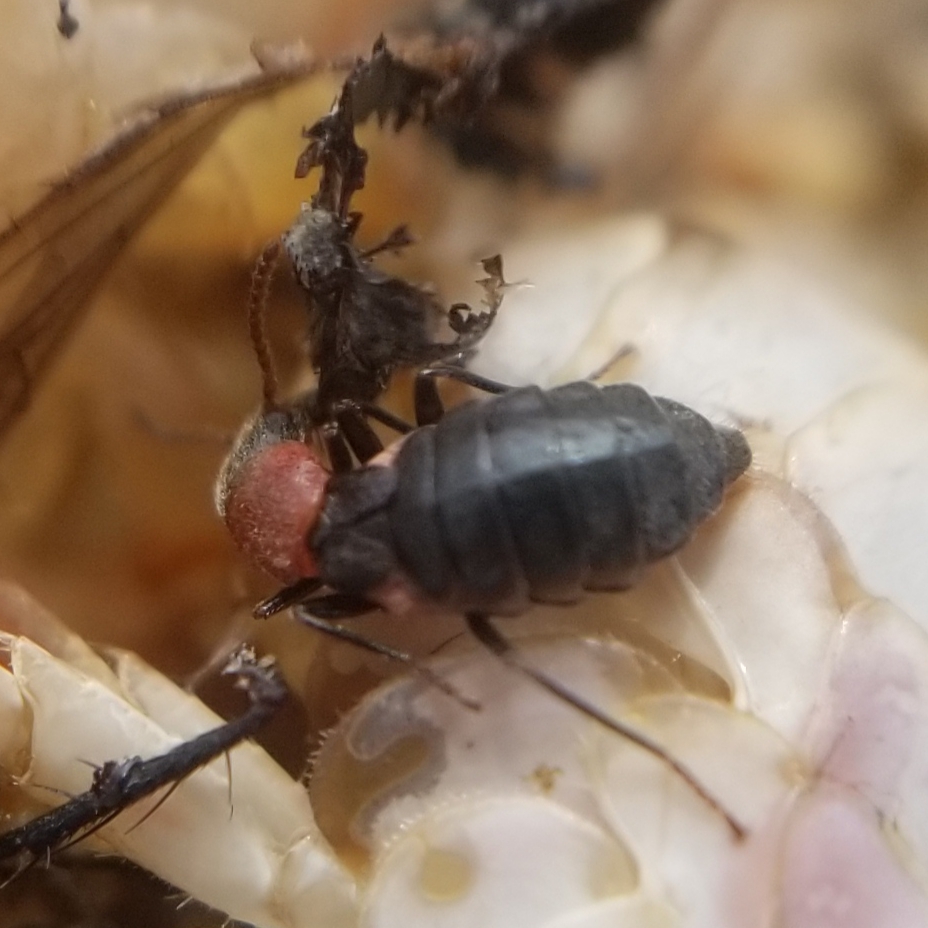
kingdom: Animalia
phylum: Arthropoda
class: Insecta
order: Coleoptera
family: Melyridae
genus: Endeodes
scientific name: Endeodes collaris
